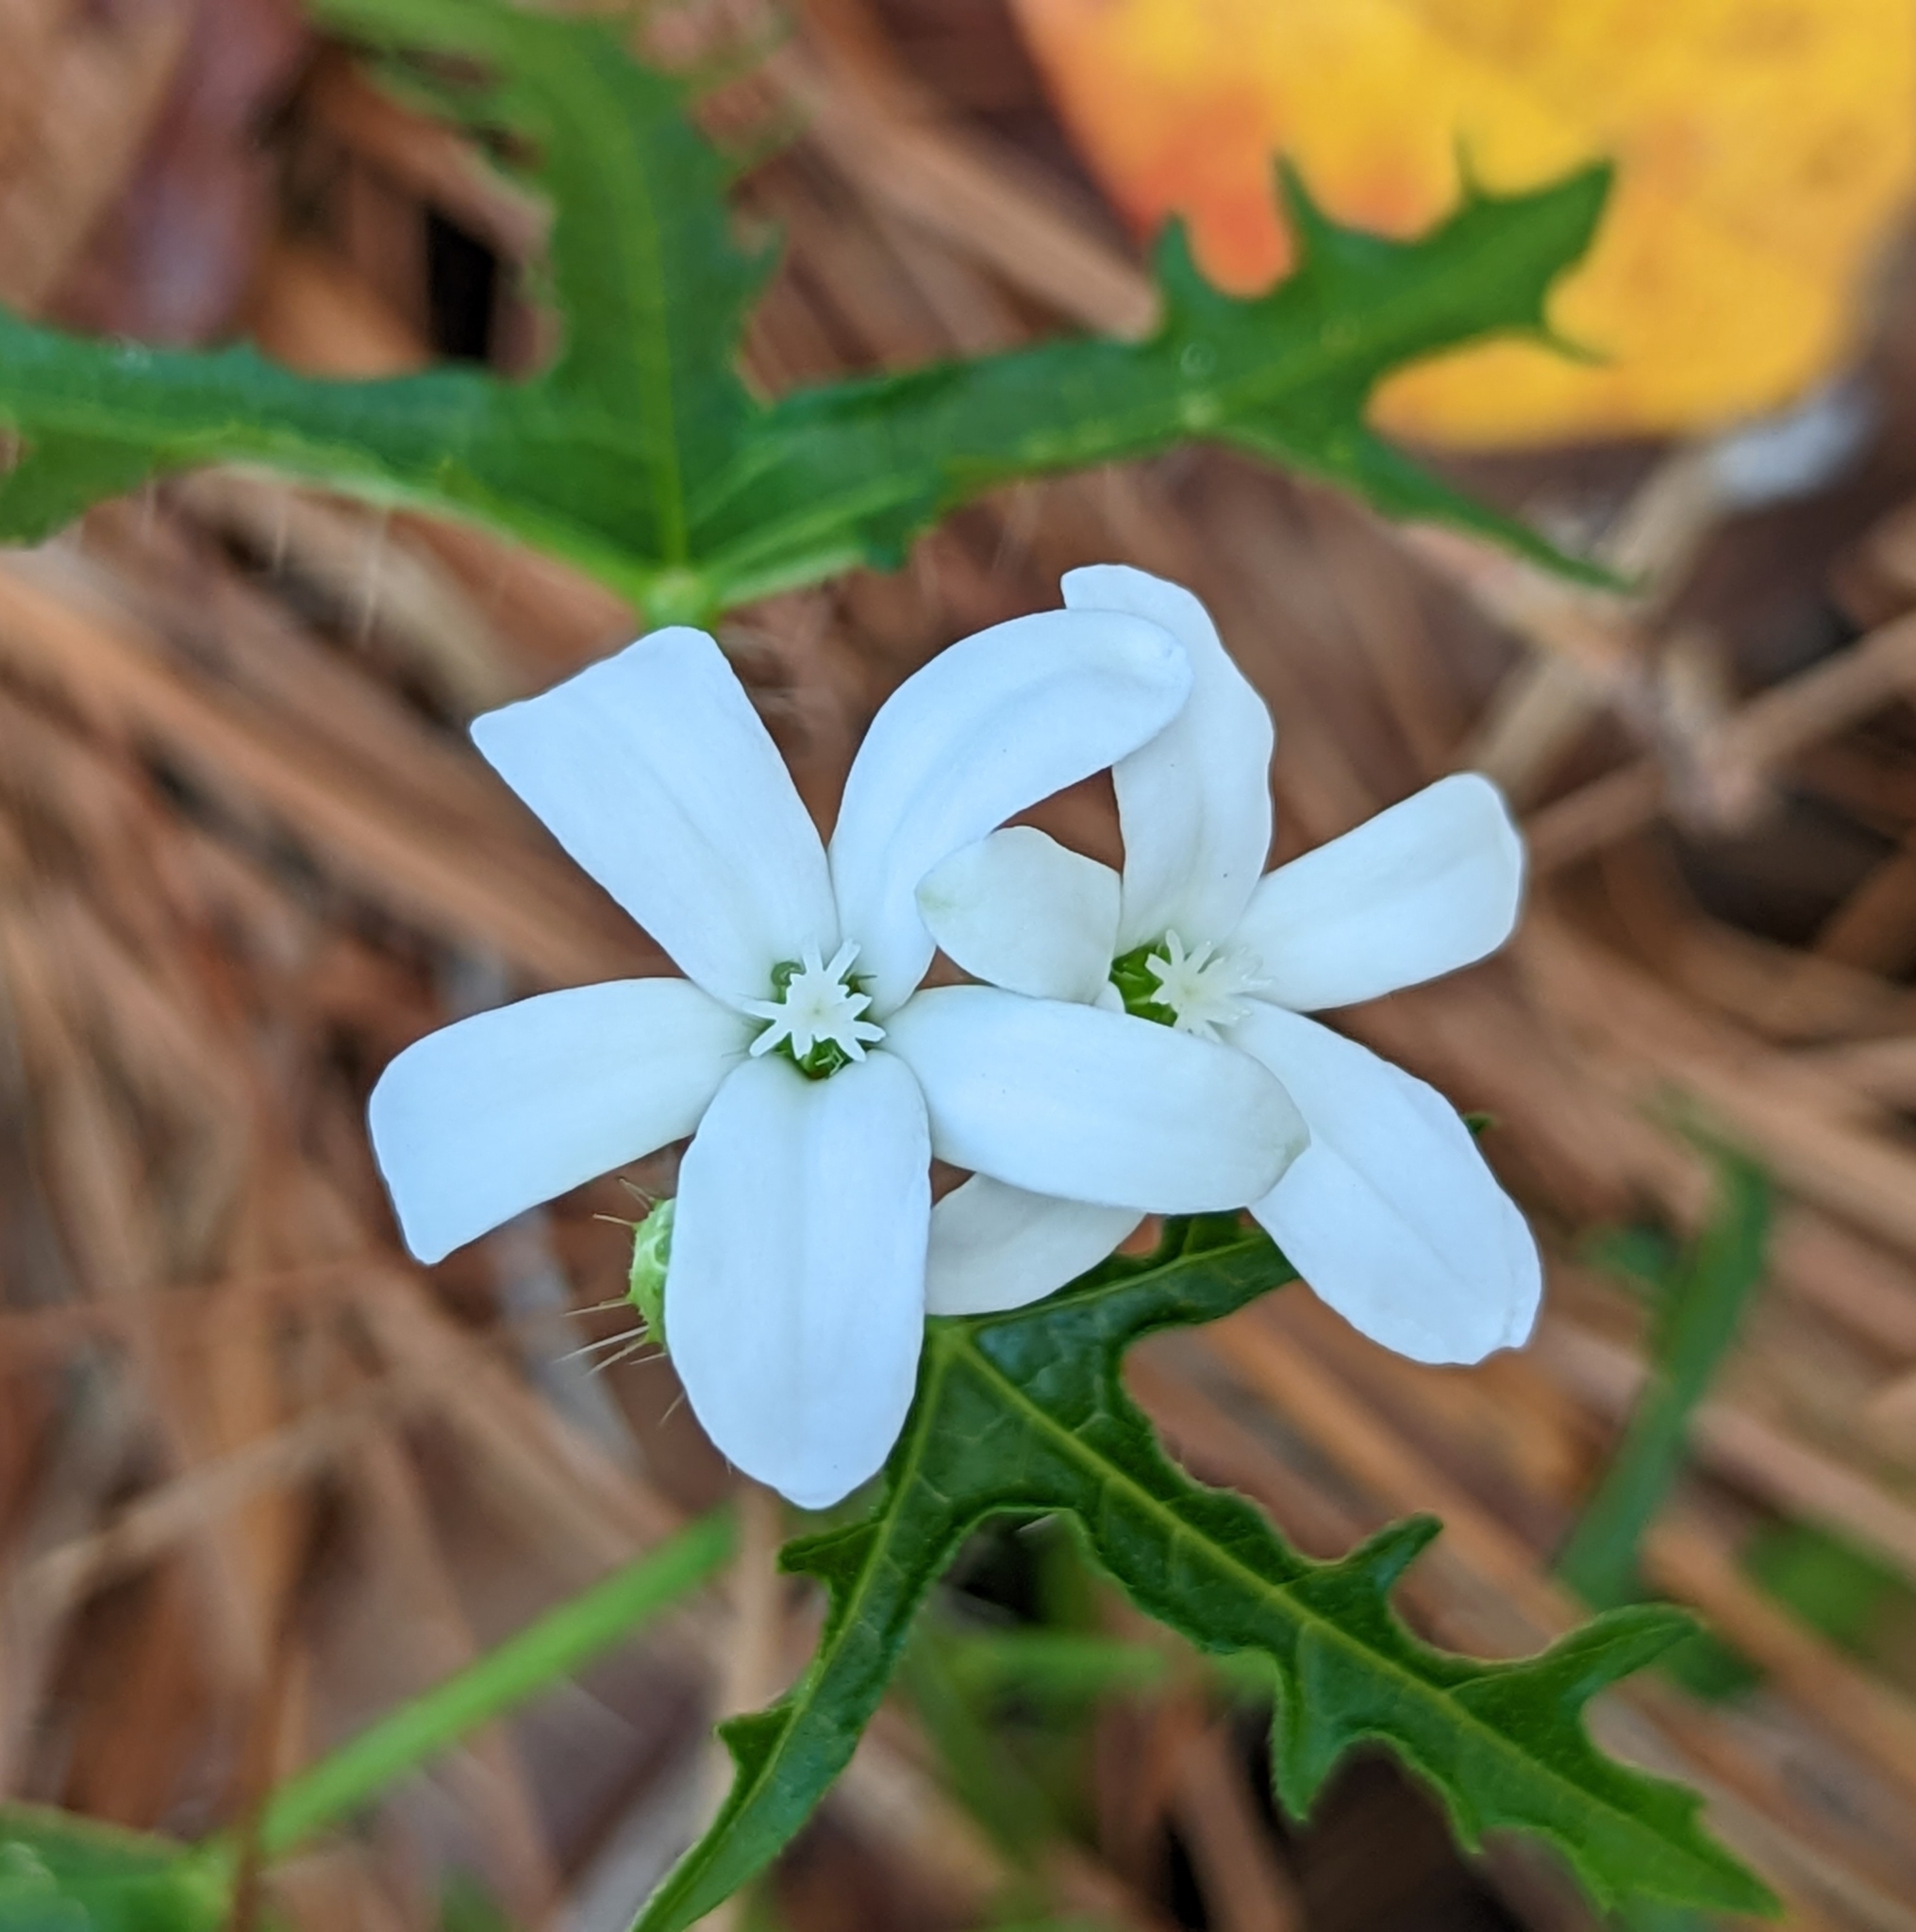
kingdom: Plantae
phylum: Tracheophyta
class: Magnoliopsida
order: Malpighiales
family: Euphorbiaceae
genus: Cnidoscolus
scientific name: Cnidoscolus stimulosus
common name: Bull-nettle
